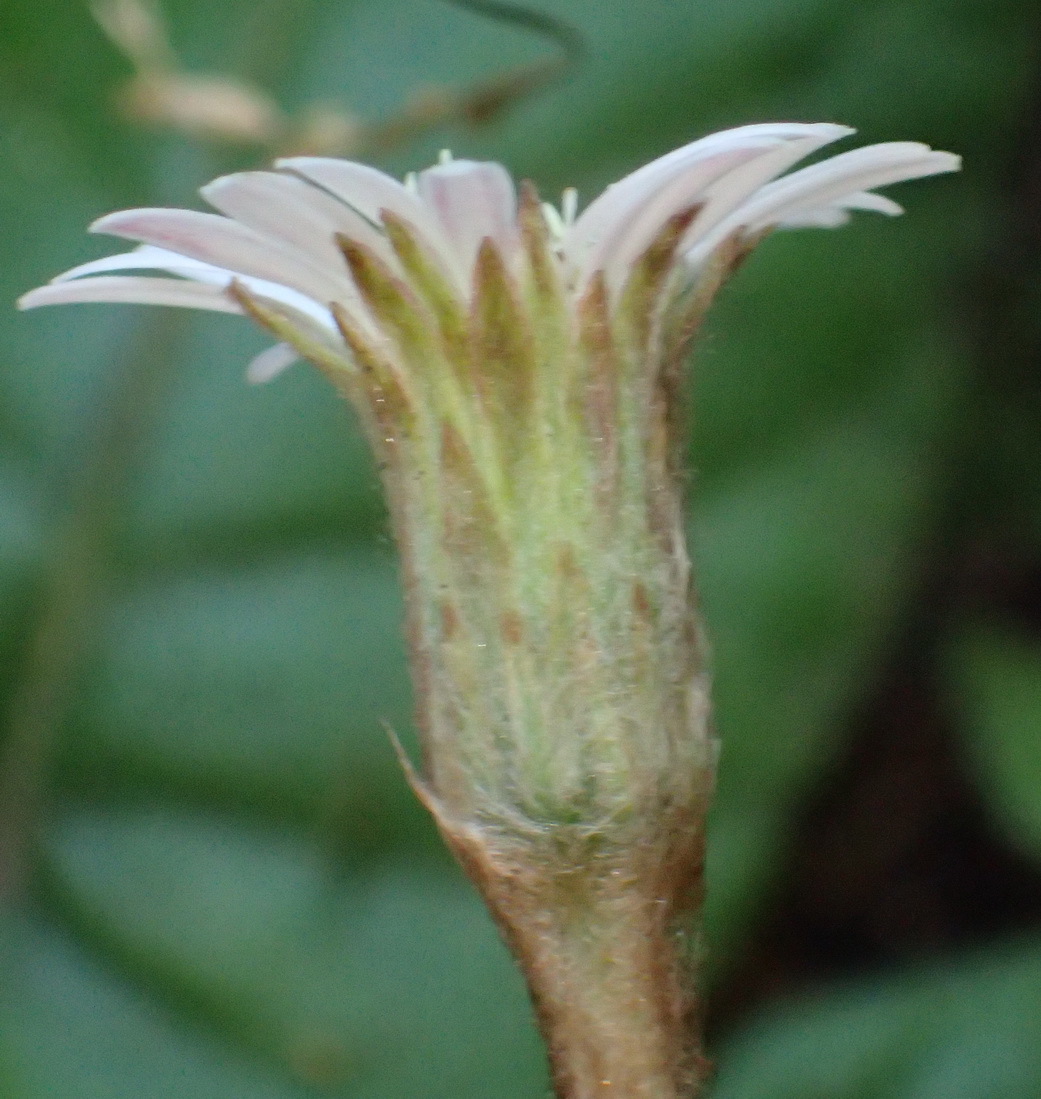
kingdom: Plantae
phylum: Tracheophyta
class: Magnoliopsida
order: Asterales
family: Asteraceae
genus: Piloselloides
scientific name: Piloselloides cordata
